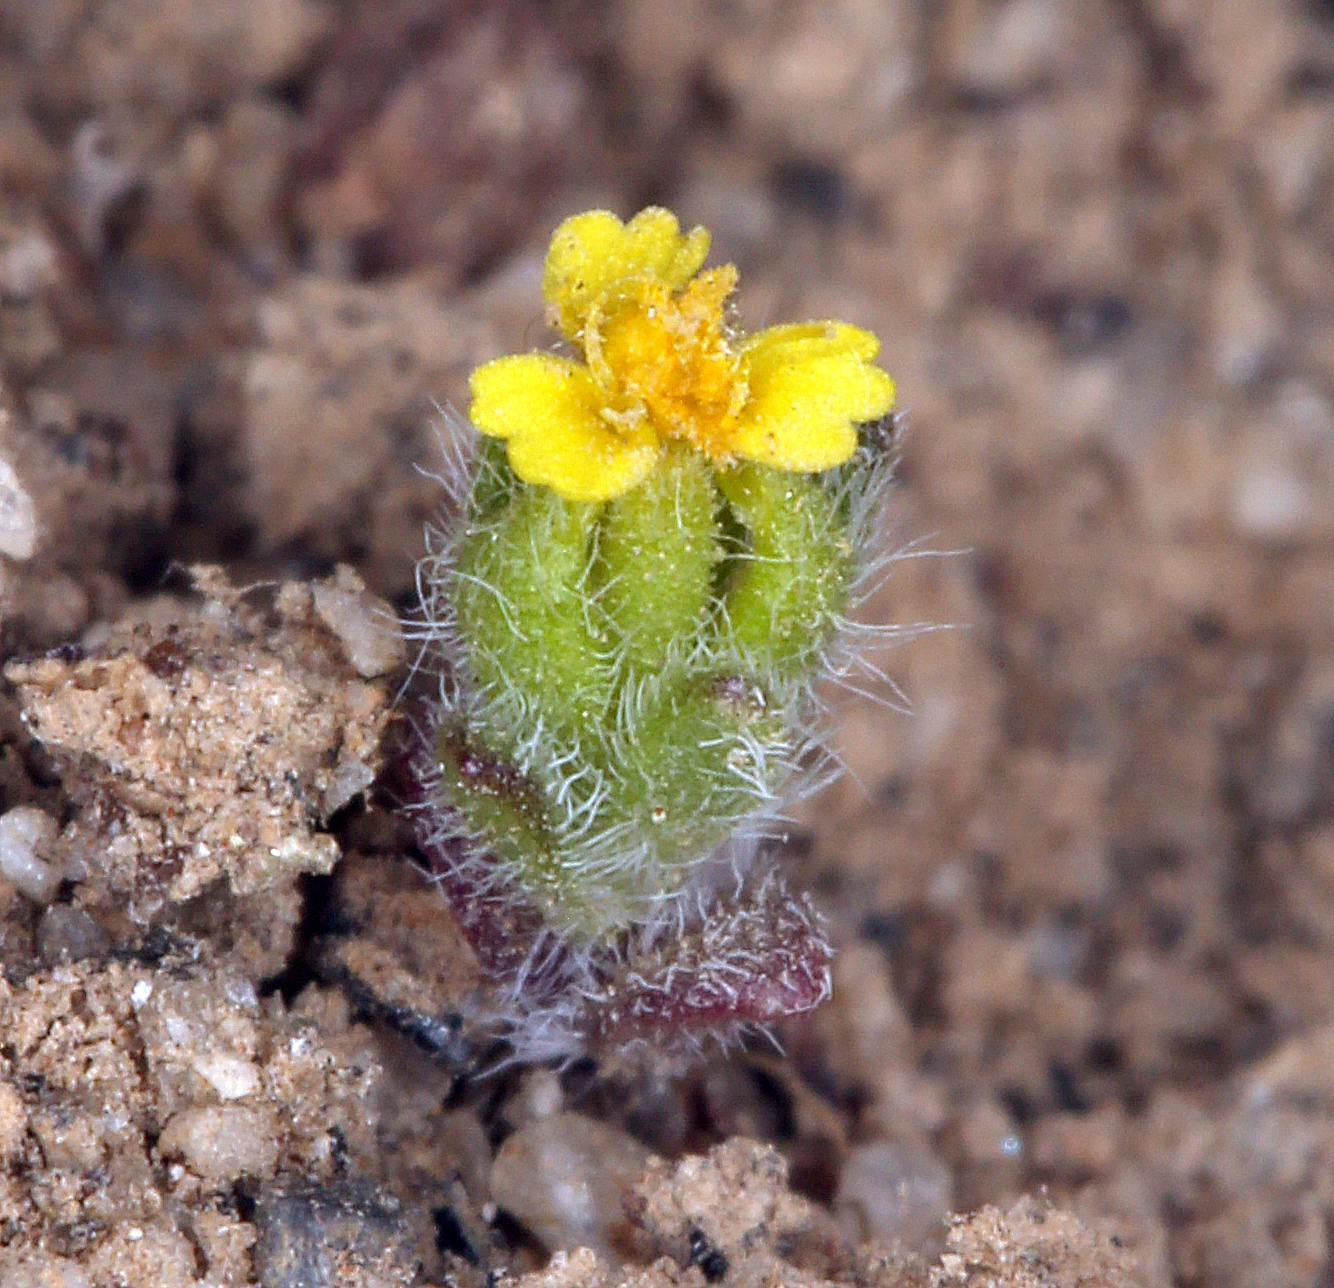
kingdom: Plantae
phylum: Tracheophyta
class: Magnoliopsida
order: Asterales
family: Asteraceae
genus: Hemizonella
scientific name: Hemizonella minima
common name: Opposite-leaved tarweed
